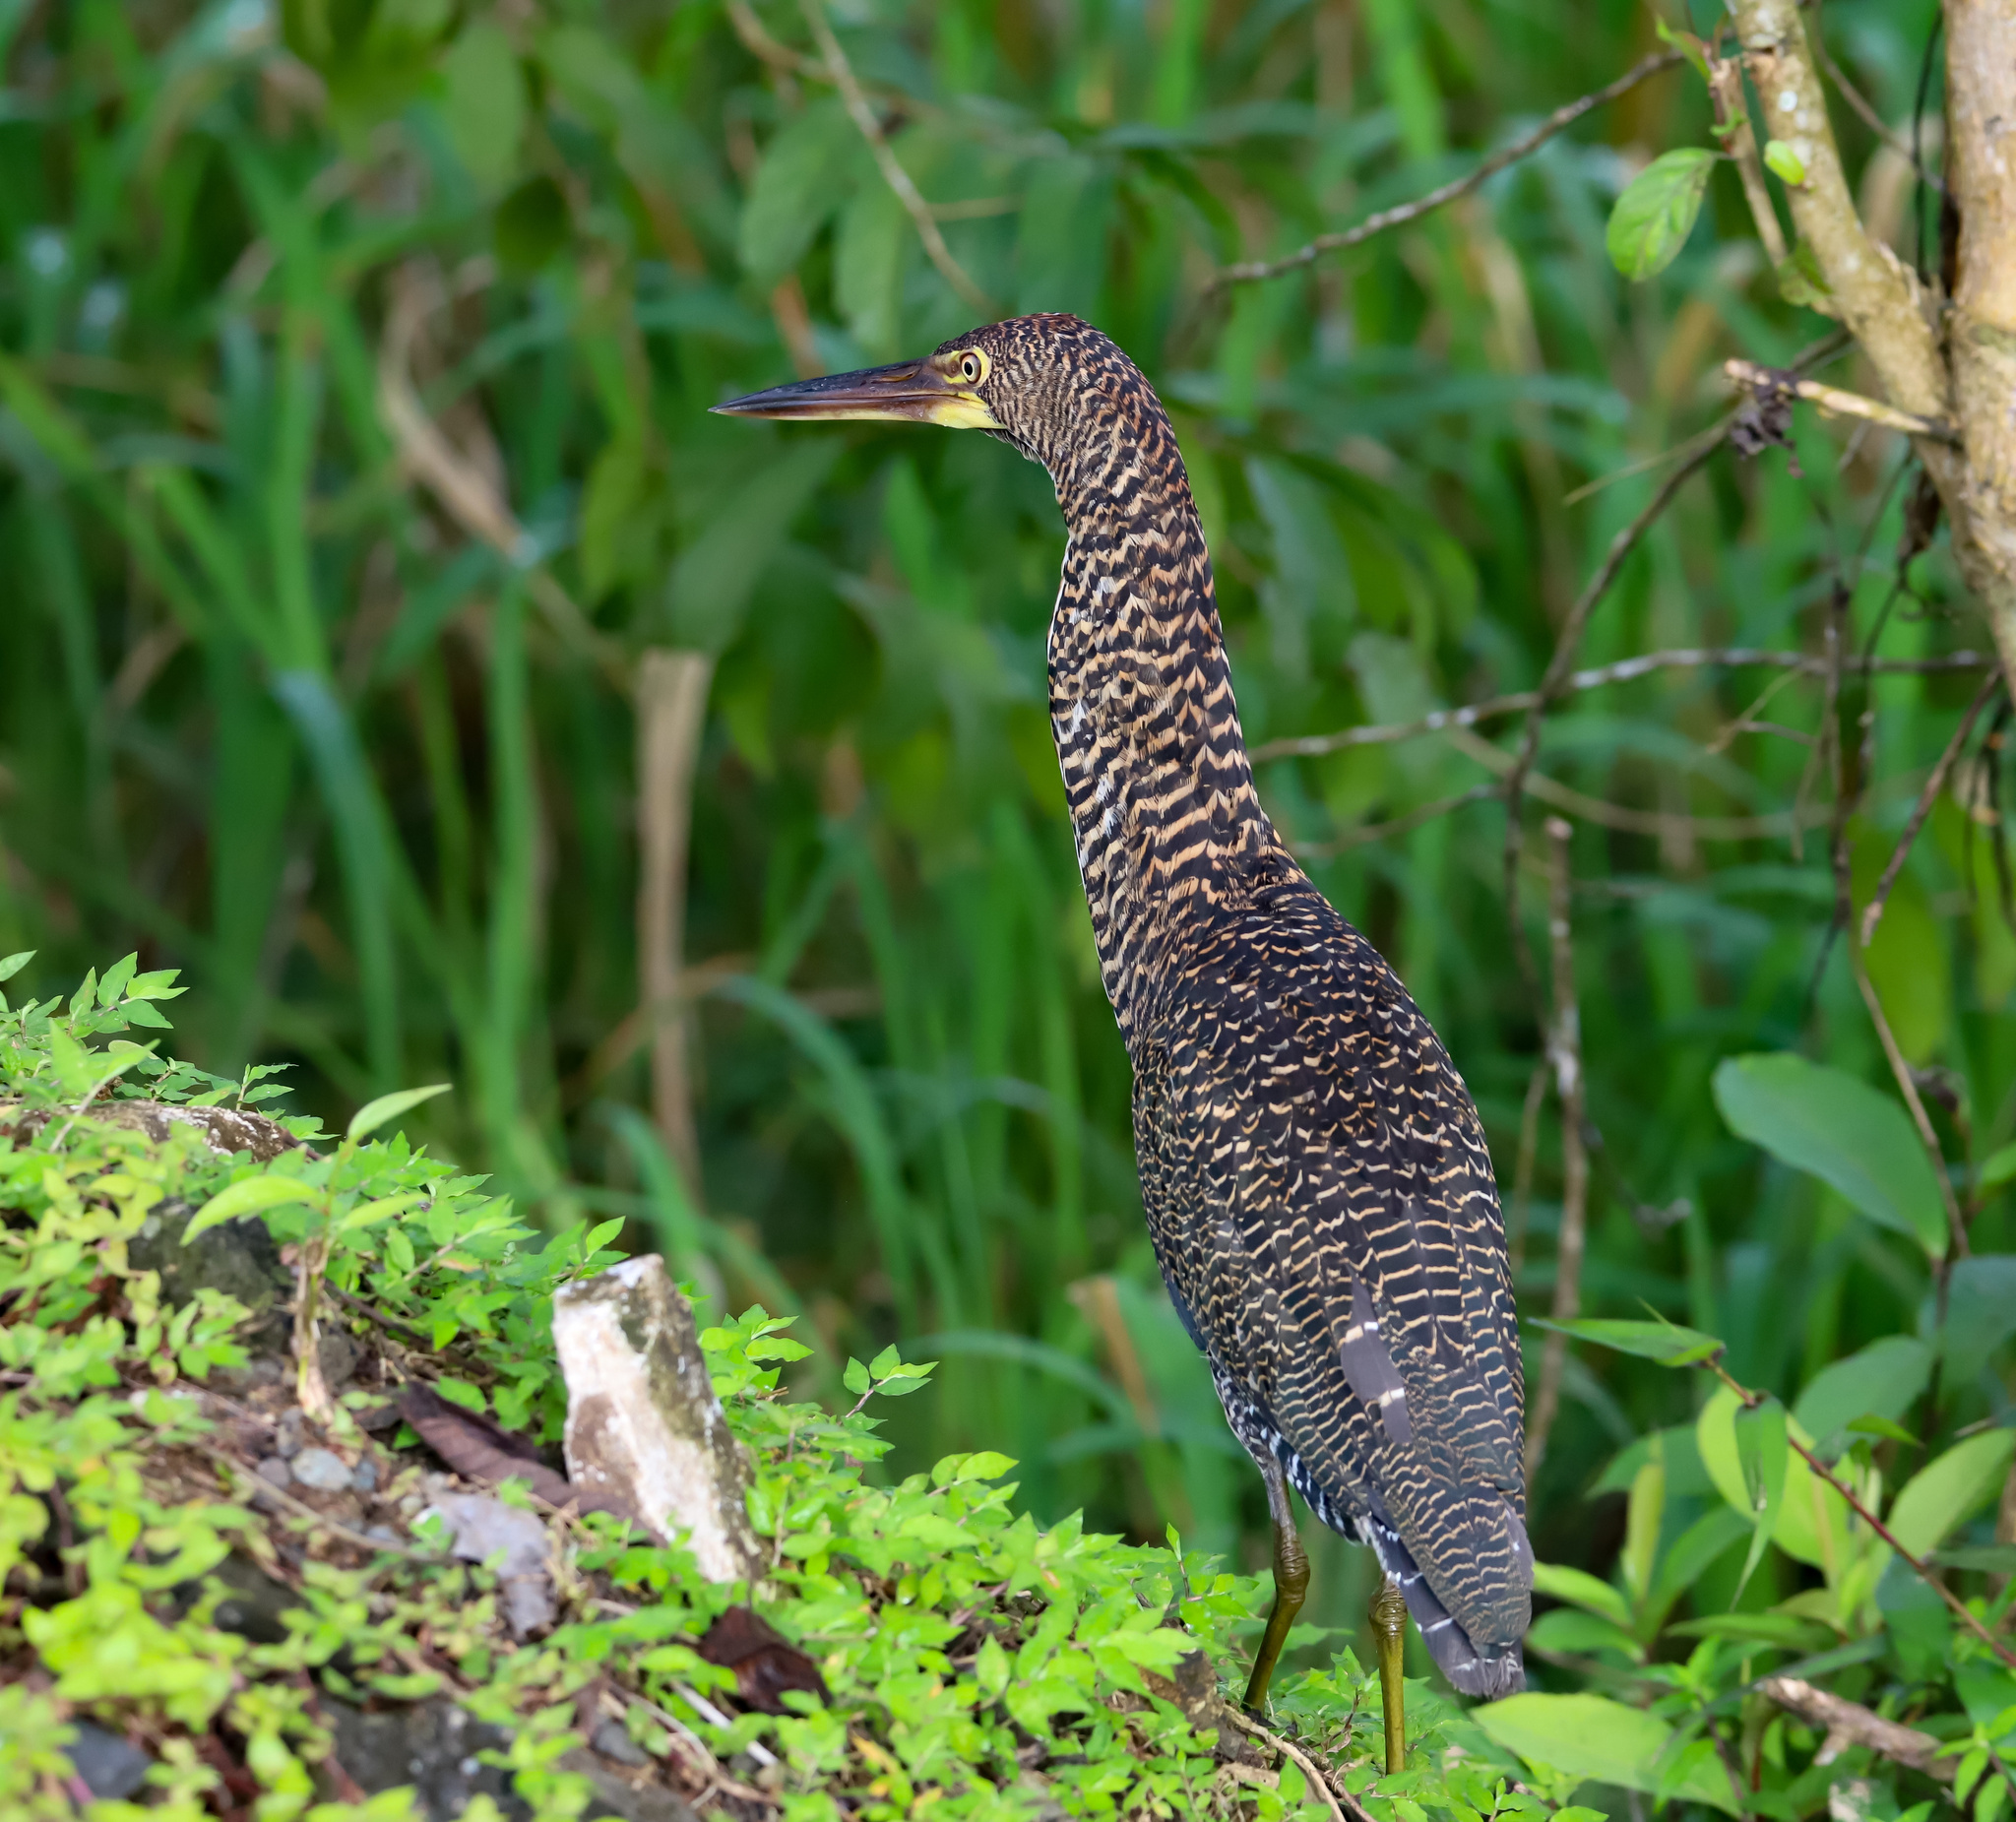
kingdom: Animalia
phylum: Chordata
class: Aves
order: Pelecaniformes
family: Ardeidae
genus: Tigrisoma
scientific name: Tigrisoma lineatum
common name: Rufescent tiger-heron
